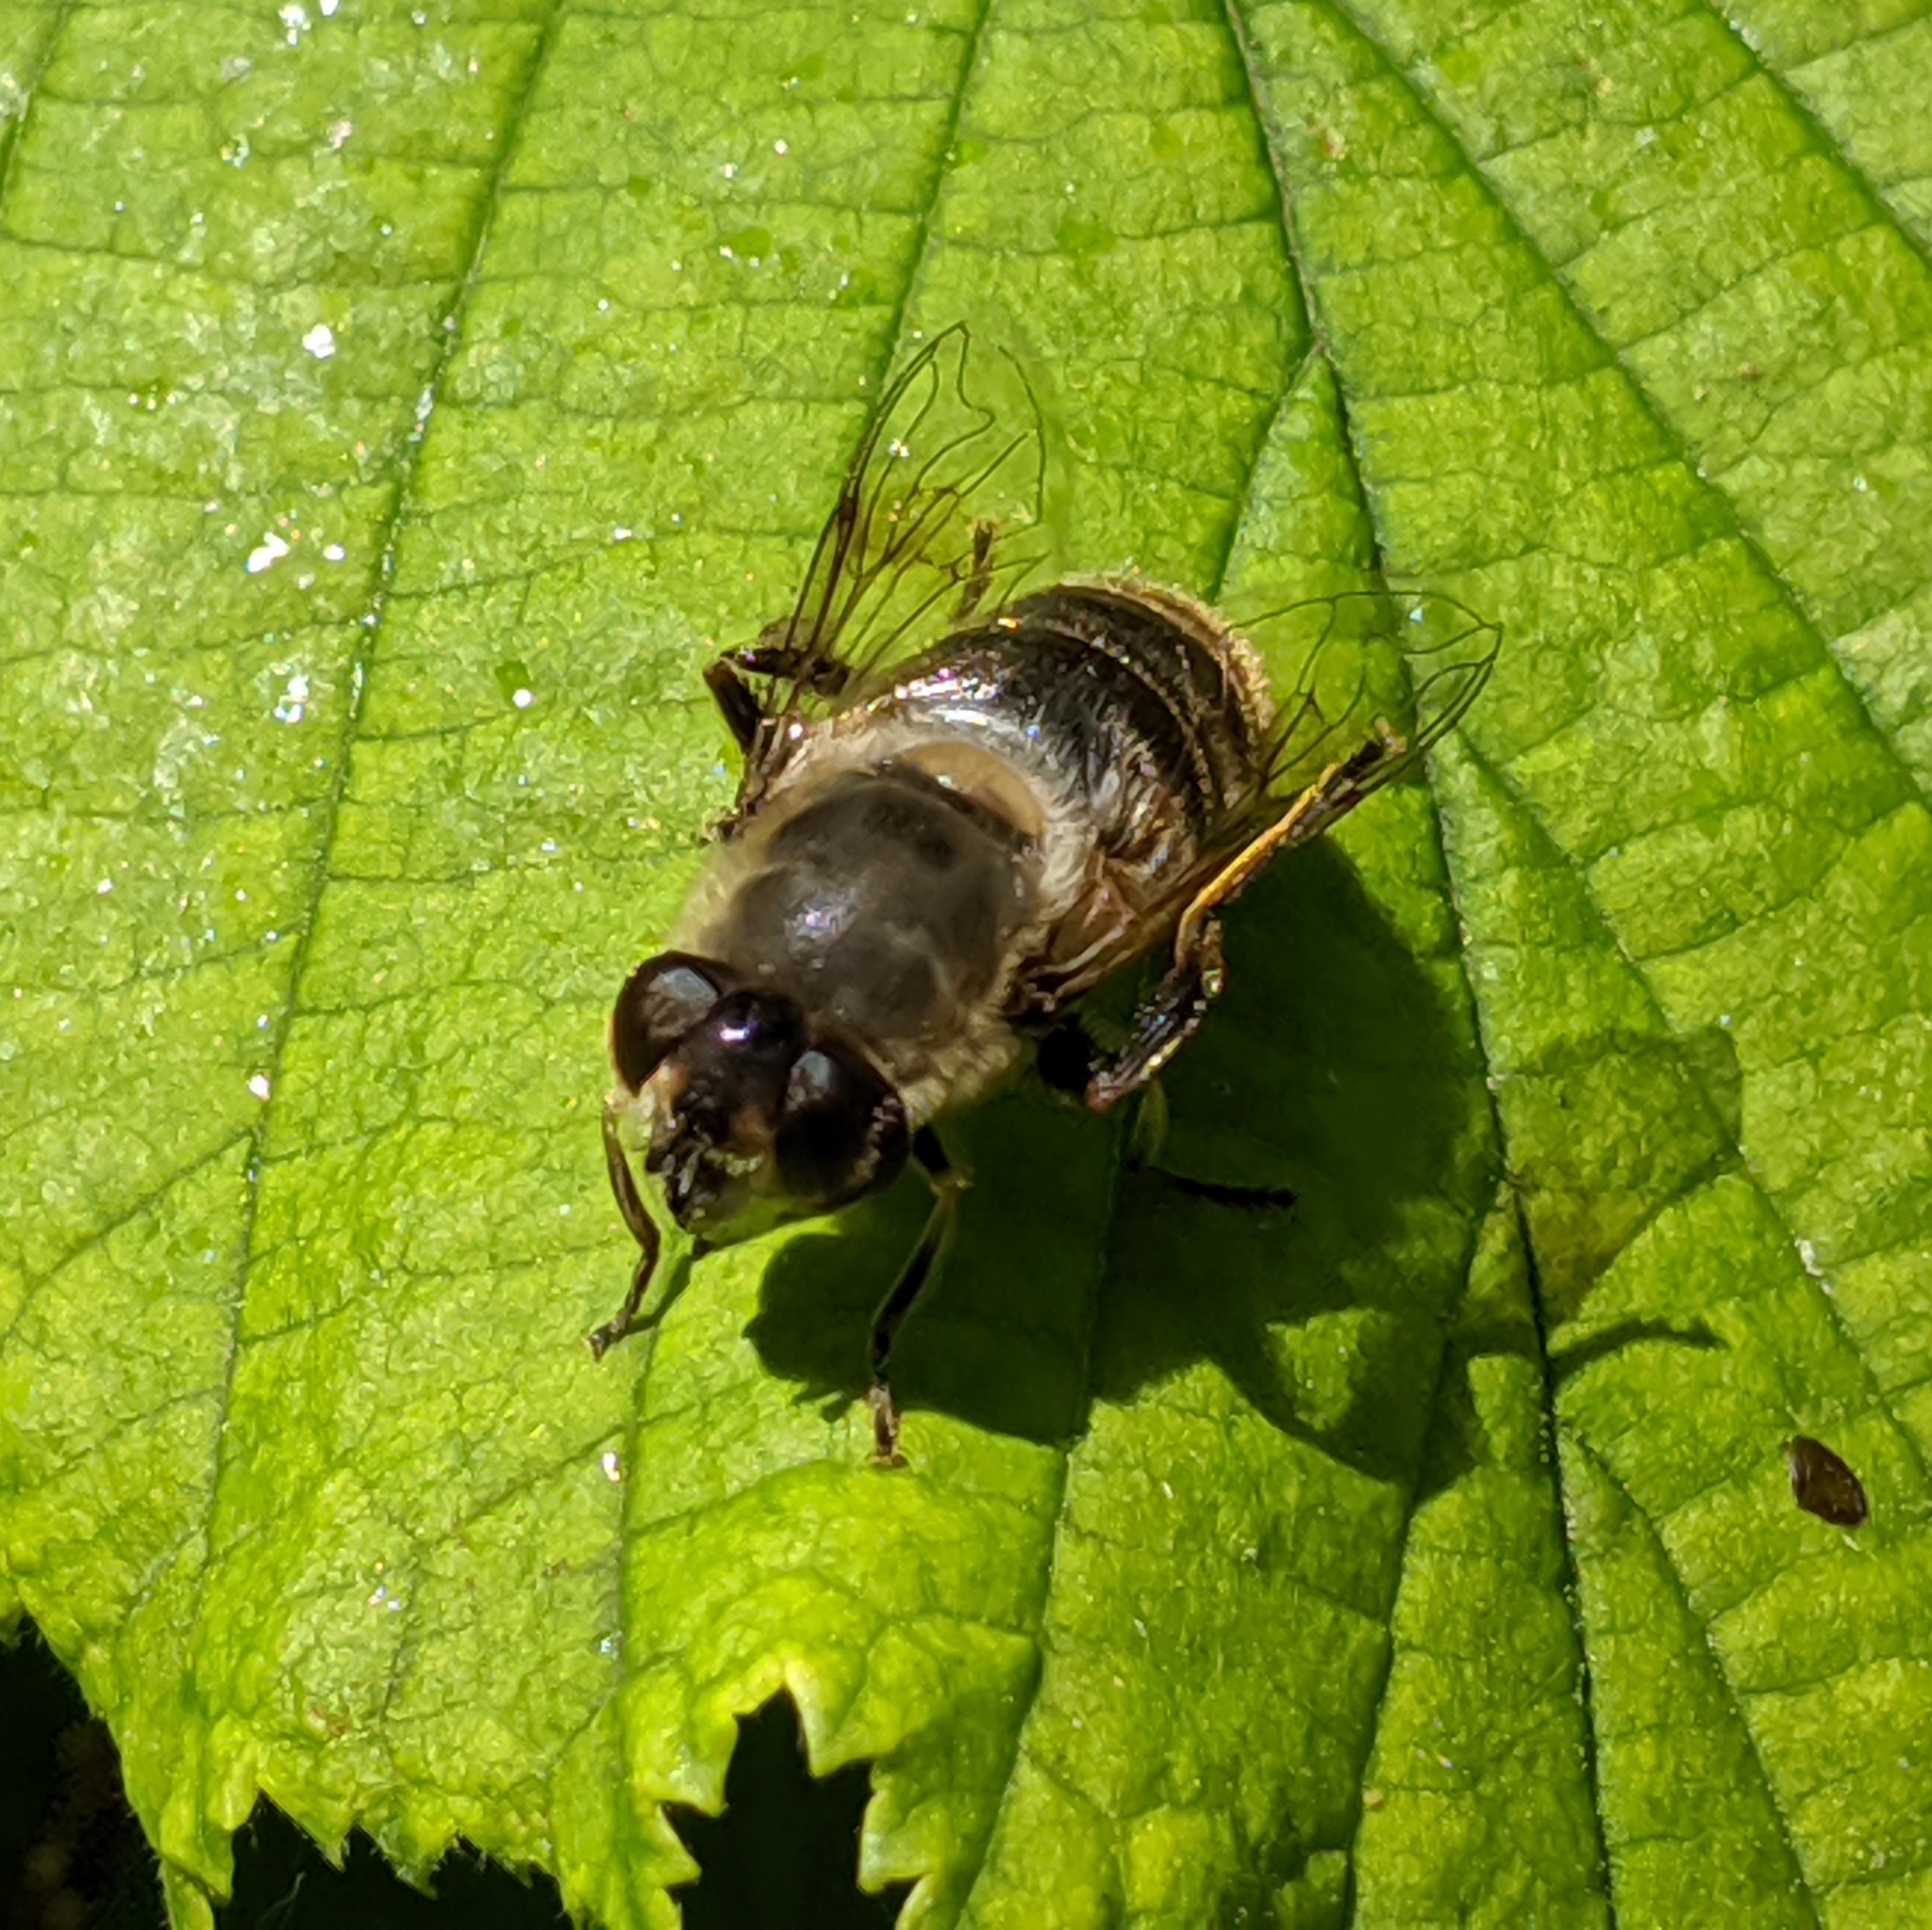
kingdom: Animalia
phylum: Arthropoda
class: Insecta
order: Diptera
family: Syrphidae
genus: Eristalis
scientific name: Eristalis tenax
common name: Drone fly
